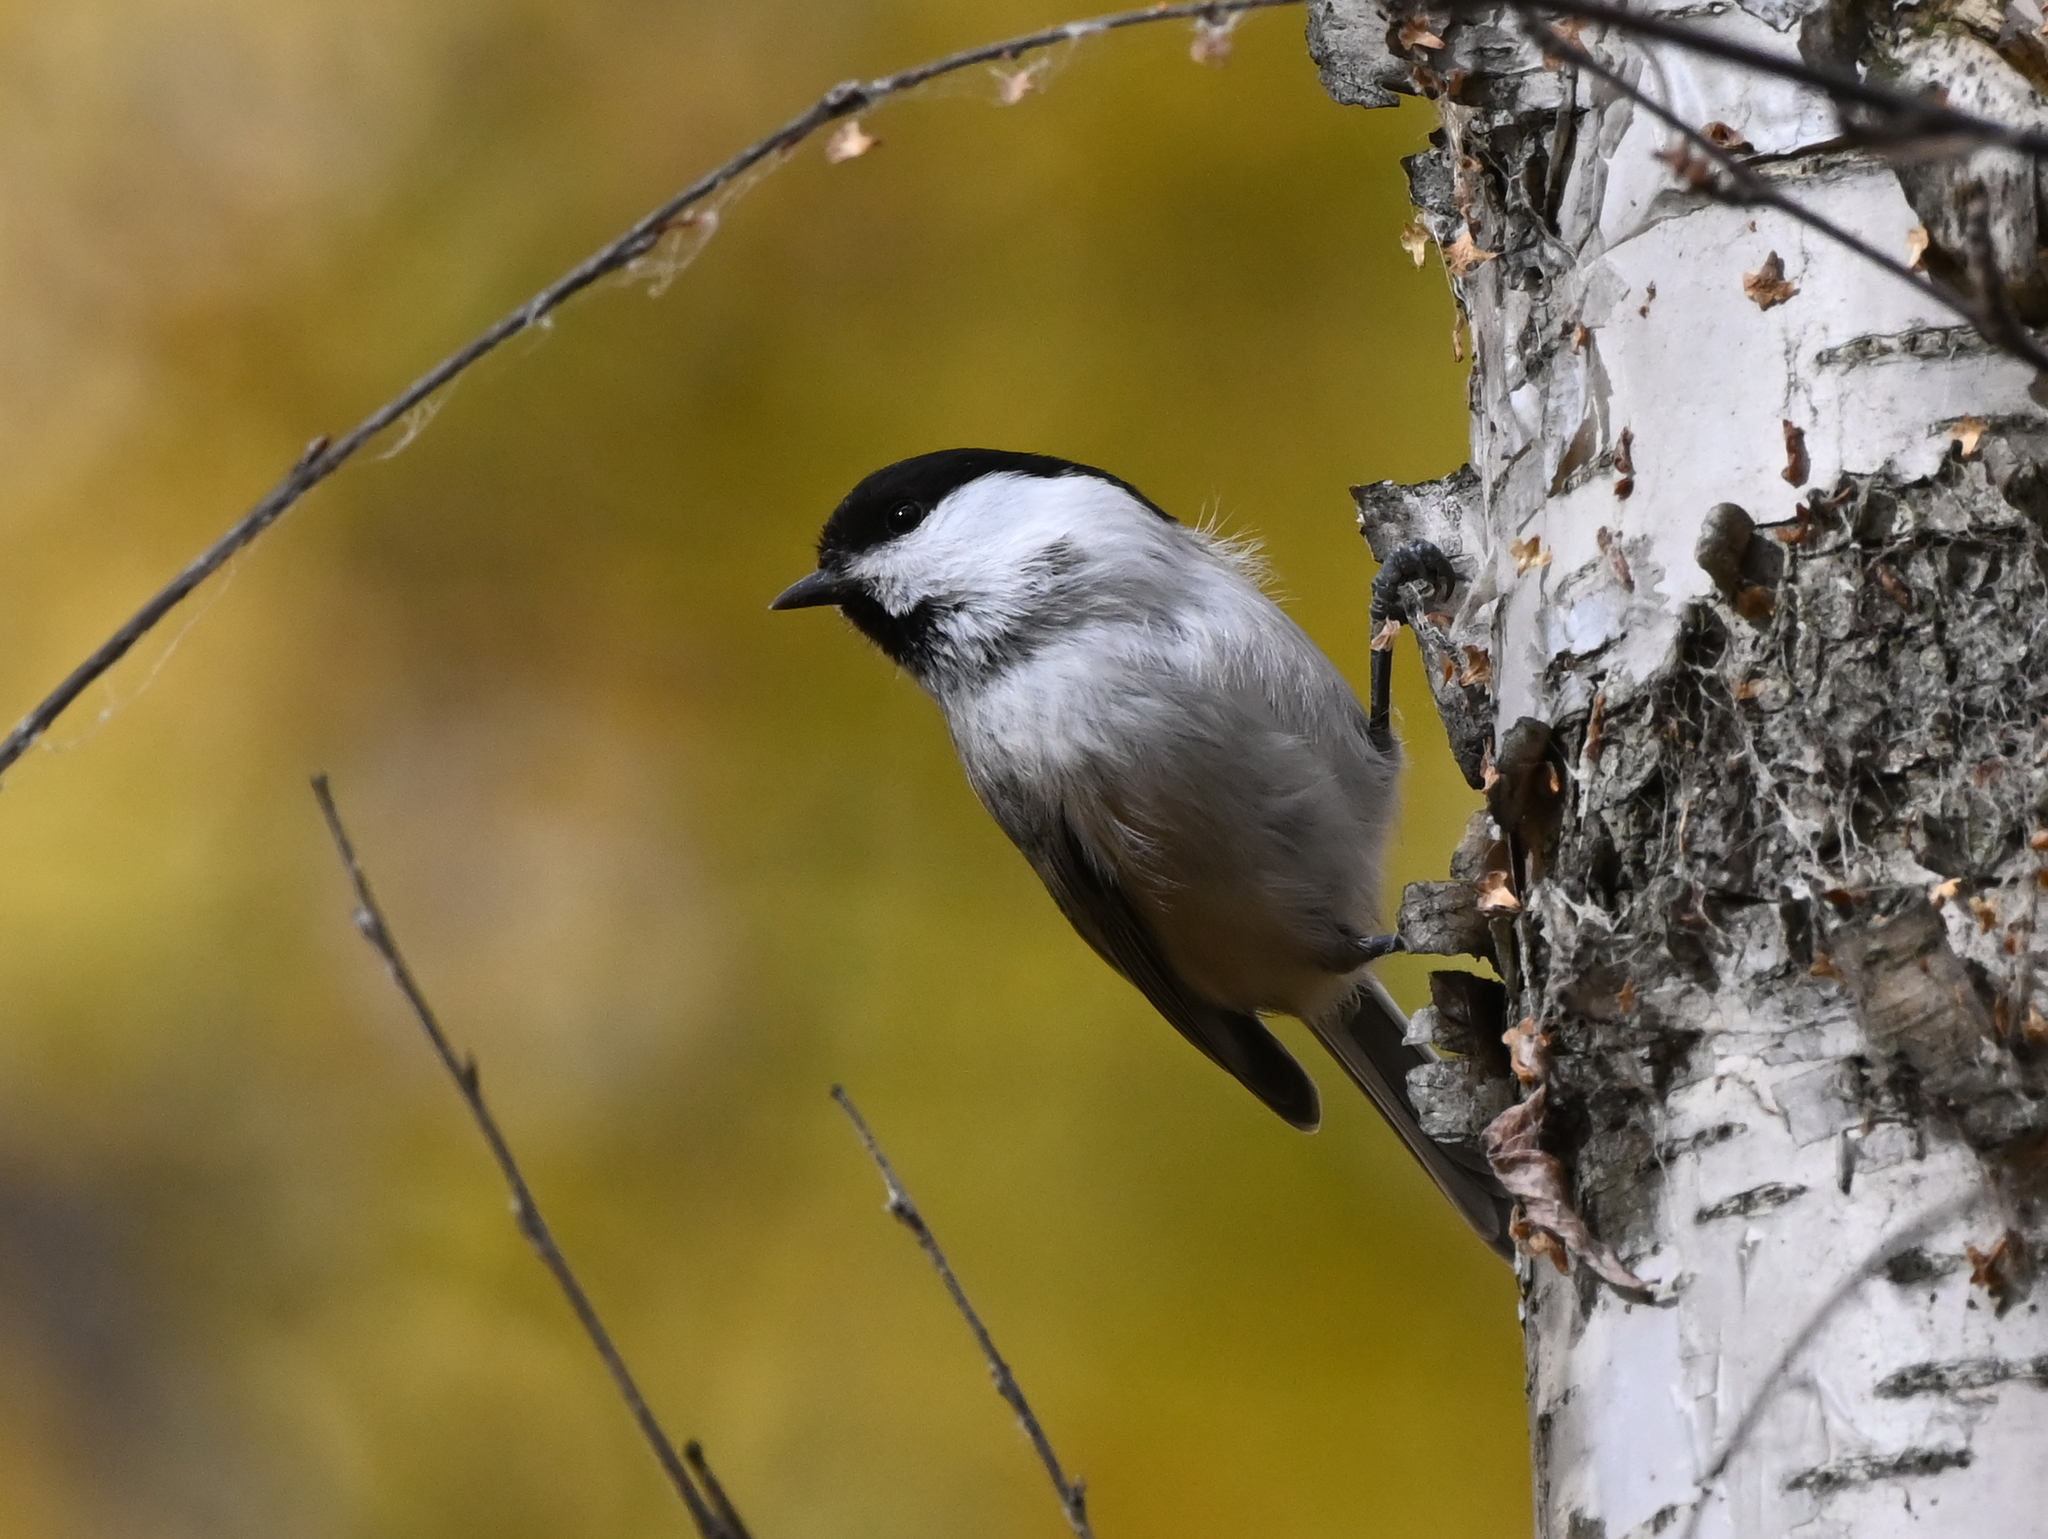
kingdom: Animalia
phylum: Chordata
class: Aves
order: Passeriformes
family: Paridae
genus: Poecile
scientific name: Poecile montanus
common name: Willow tit
